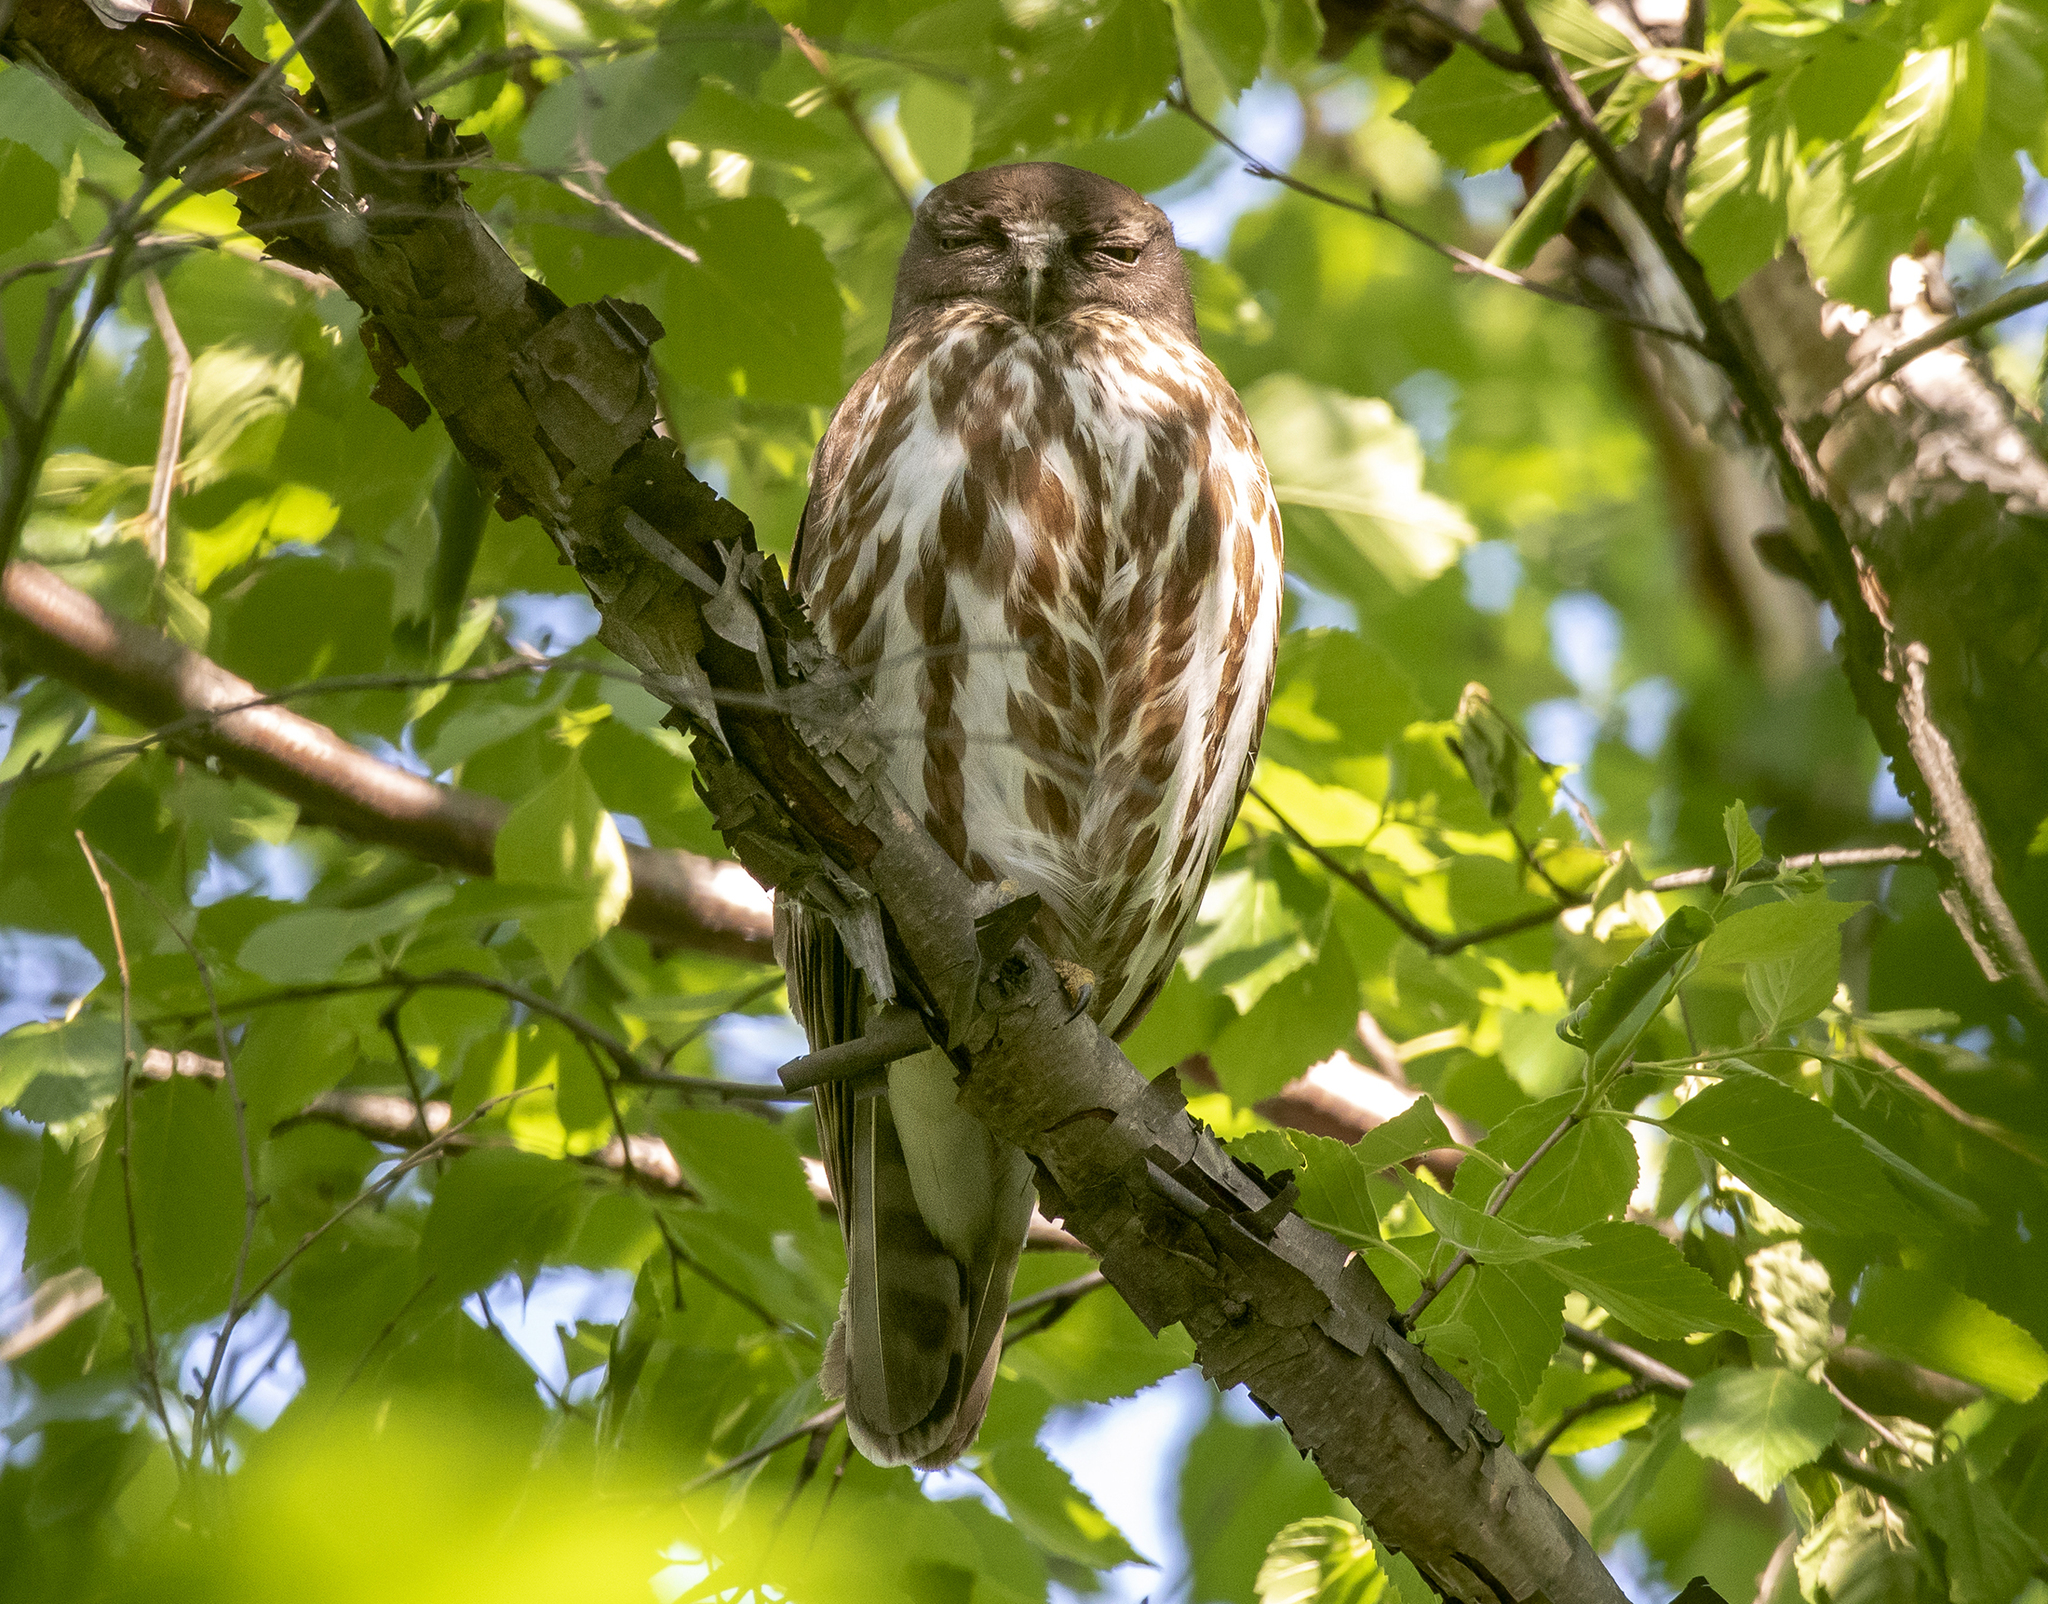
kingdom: Animalia
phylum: Chordata
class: Aves
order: Strigiformes
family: Strigidae
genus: Ninox
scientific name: Ninox japonica
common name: Northern boobook
